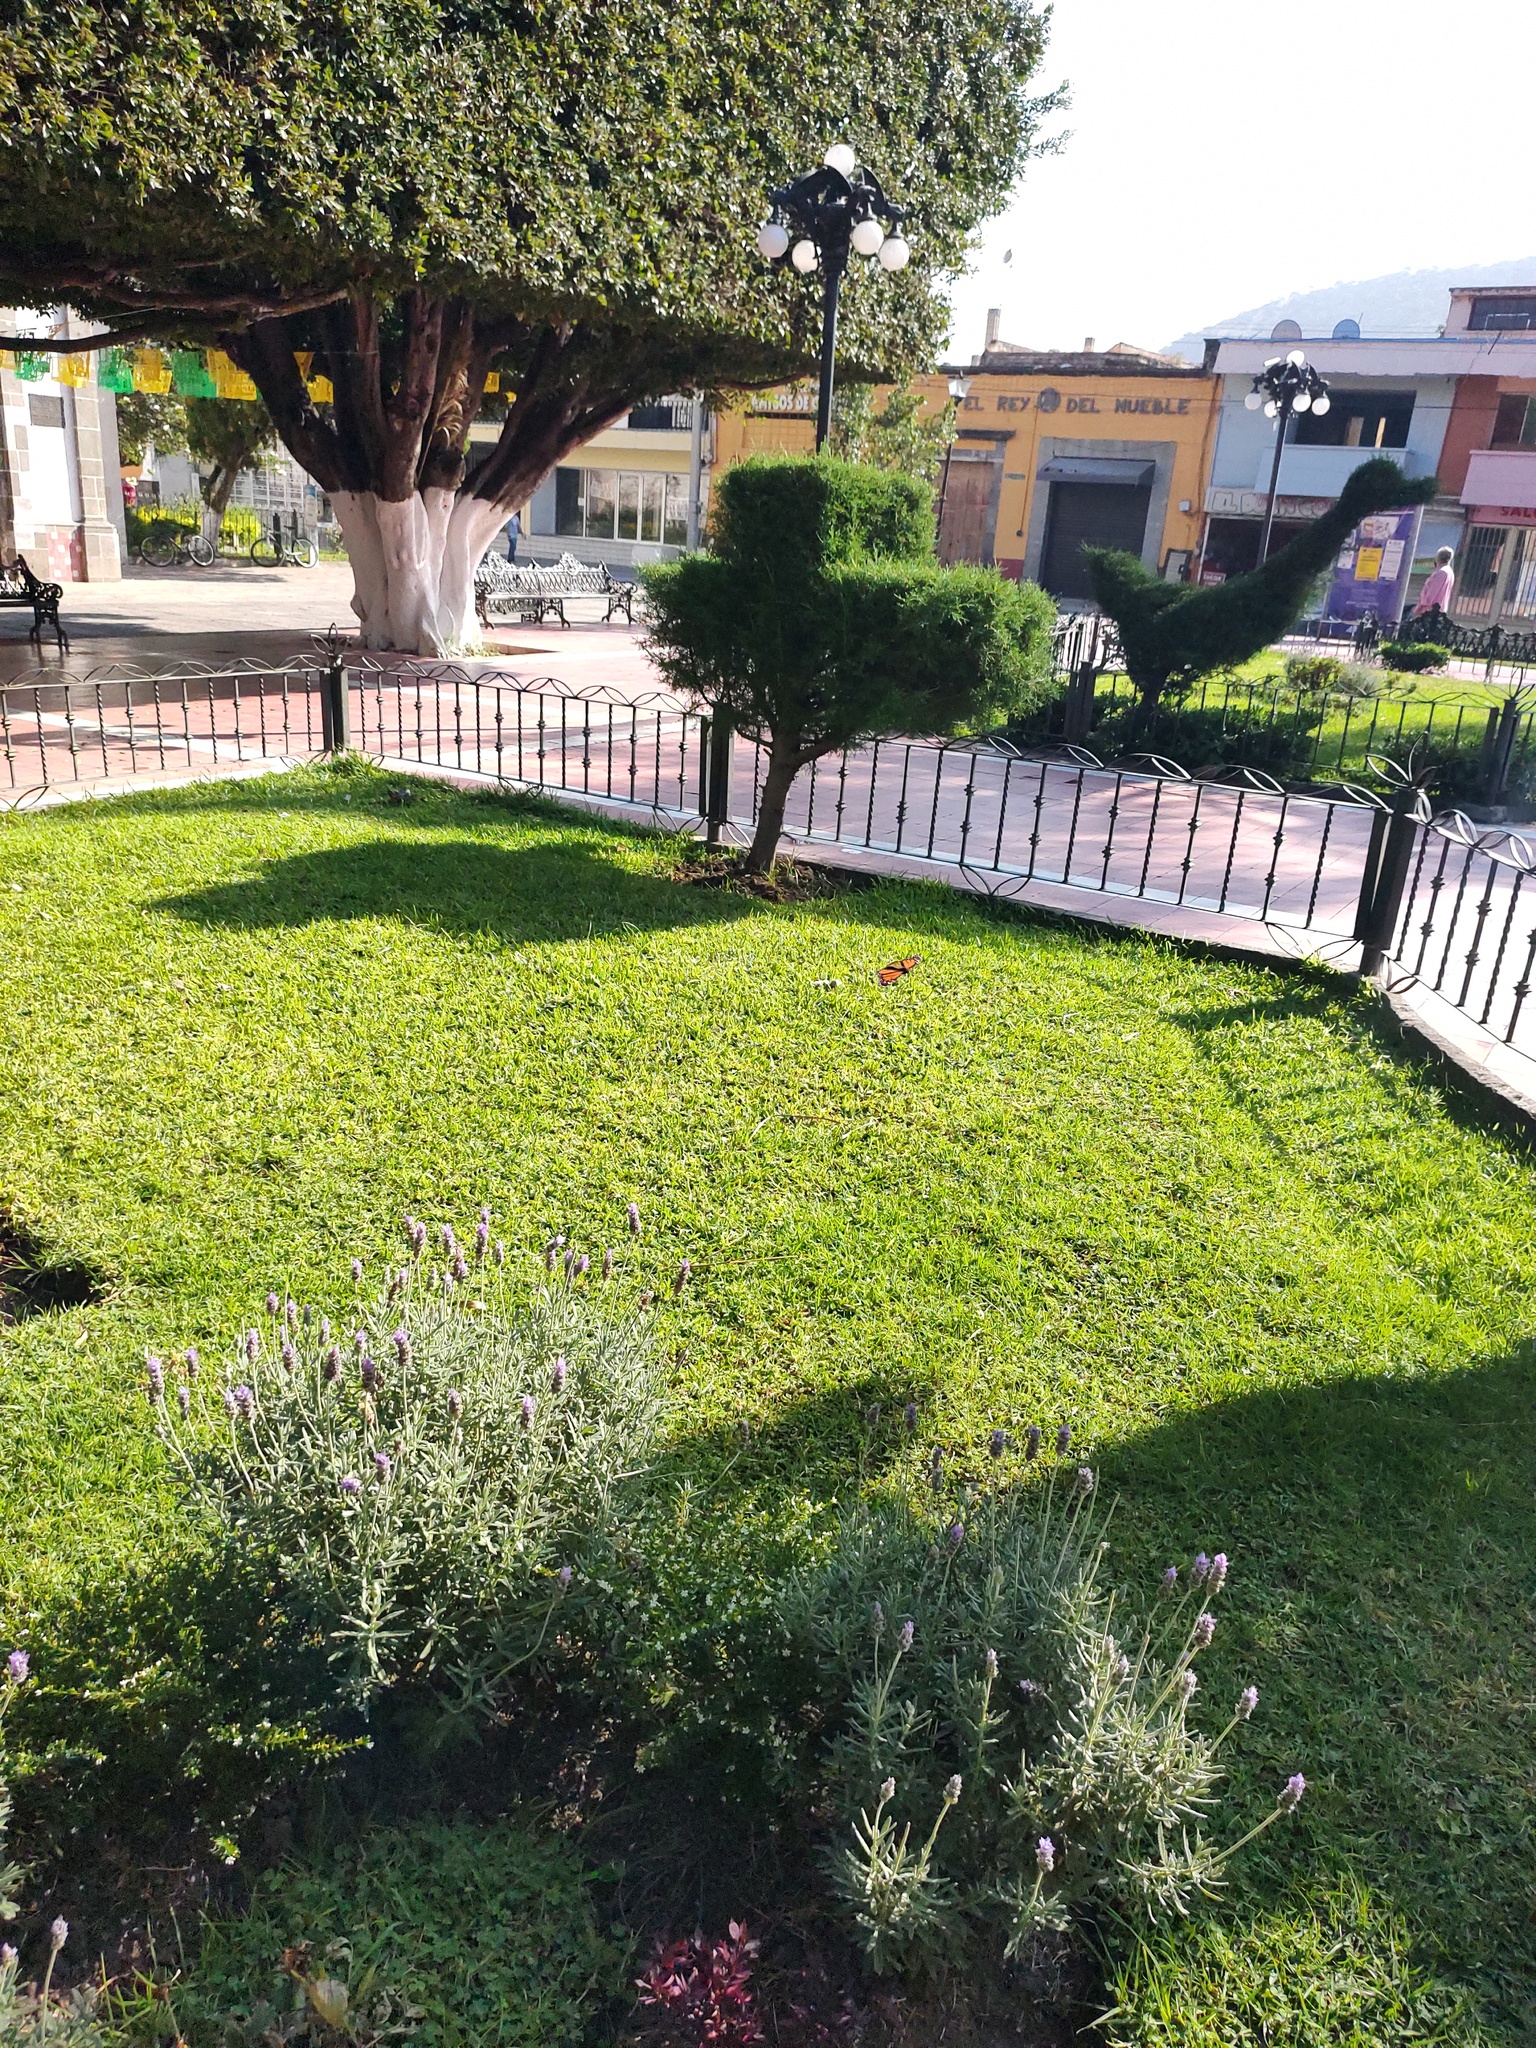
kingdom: Animalia
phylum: Arthropoda
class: Insecta
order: Lepidoptera
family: Nymphalidae
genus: Danaus
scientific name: Danaus plexippus
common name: Monarch
